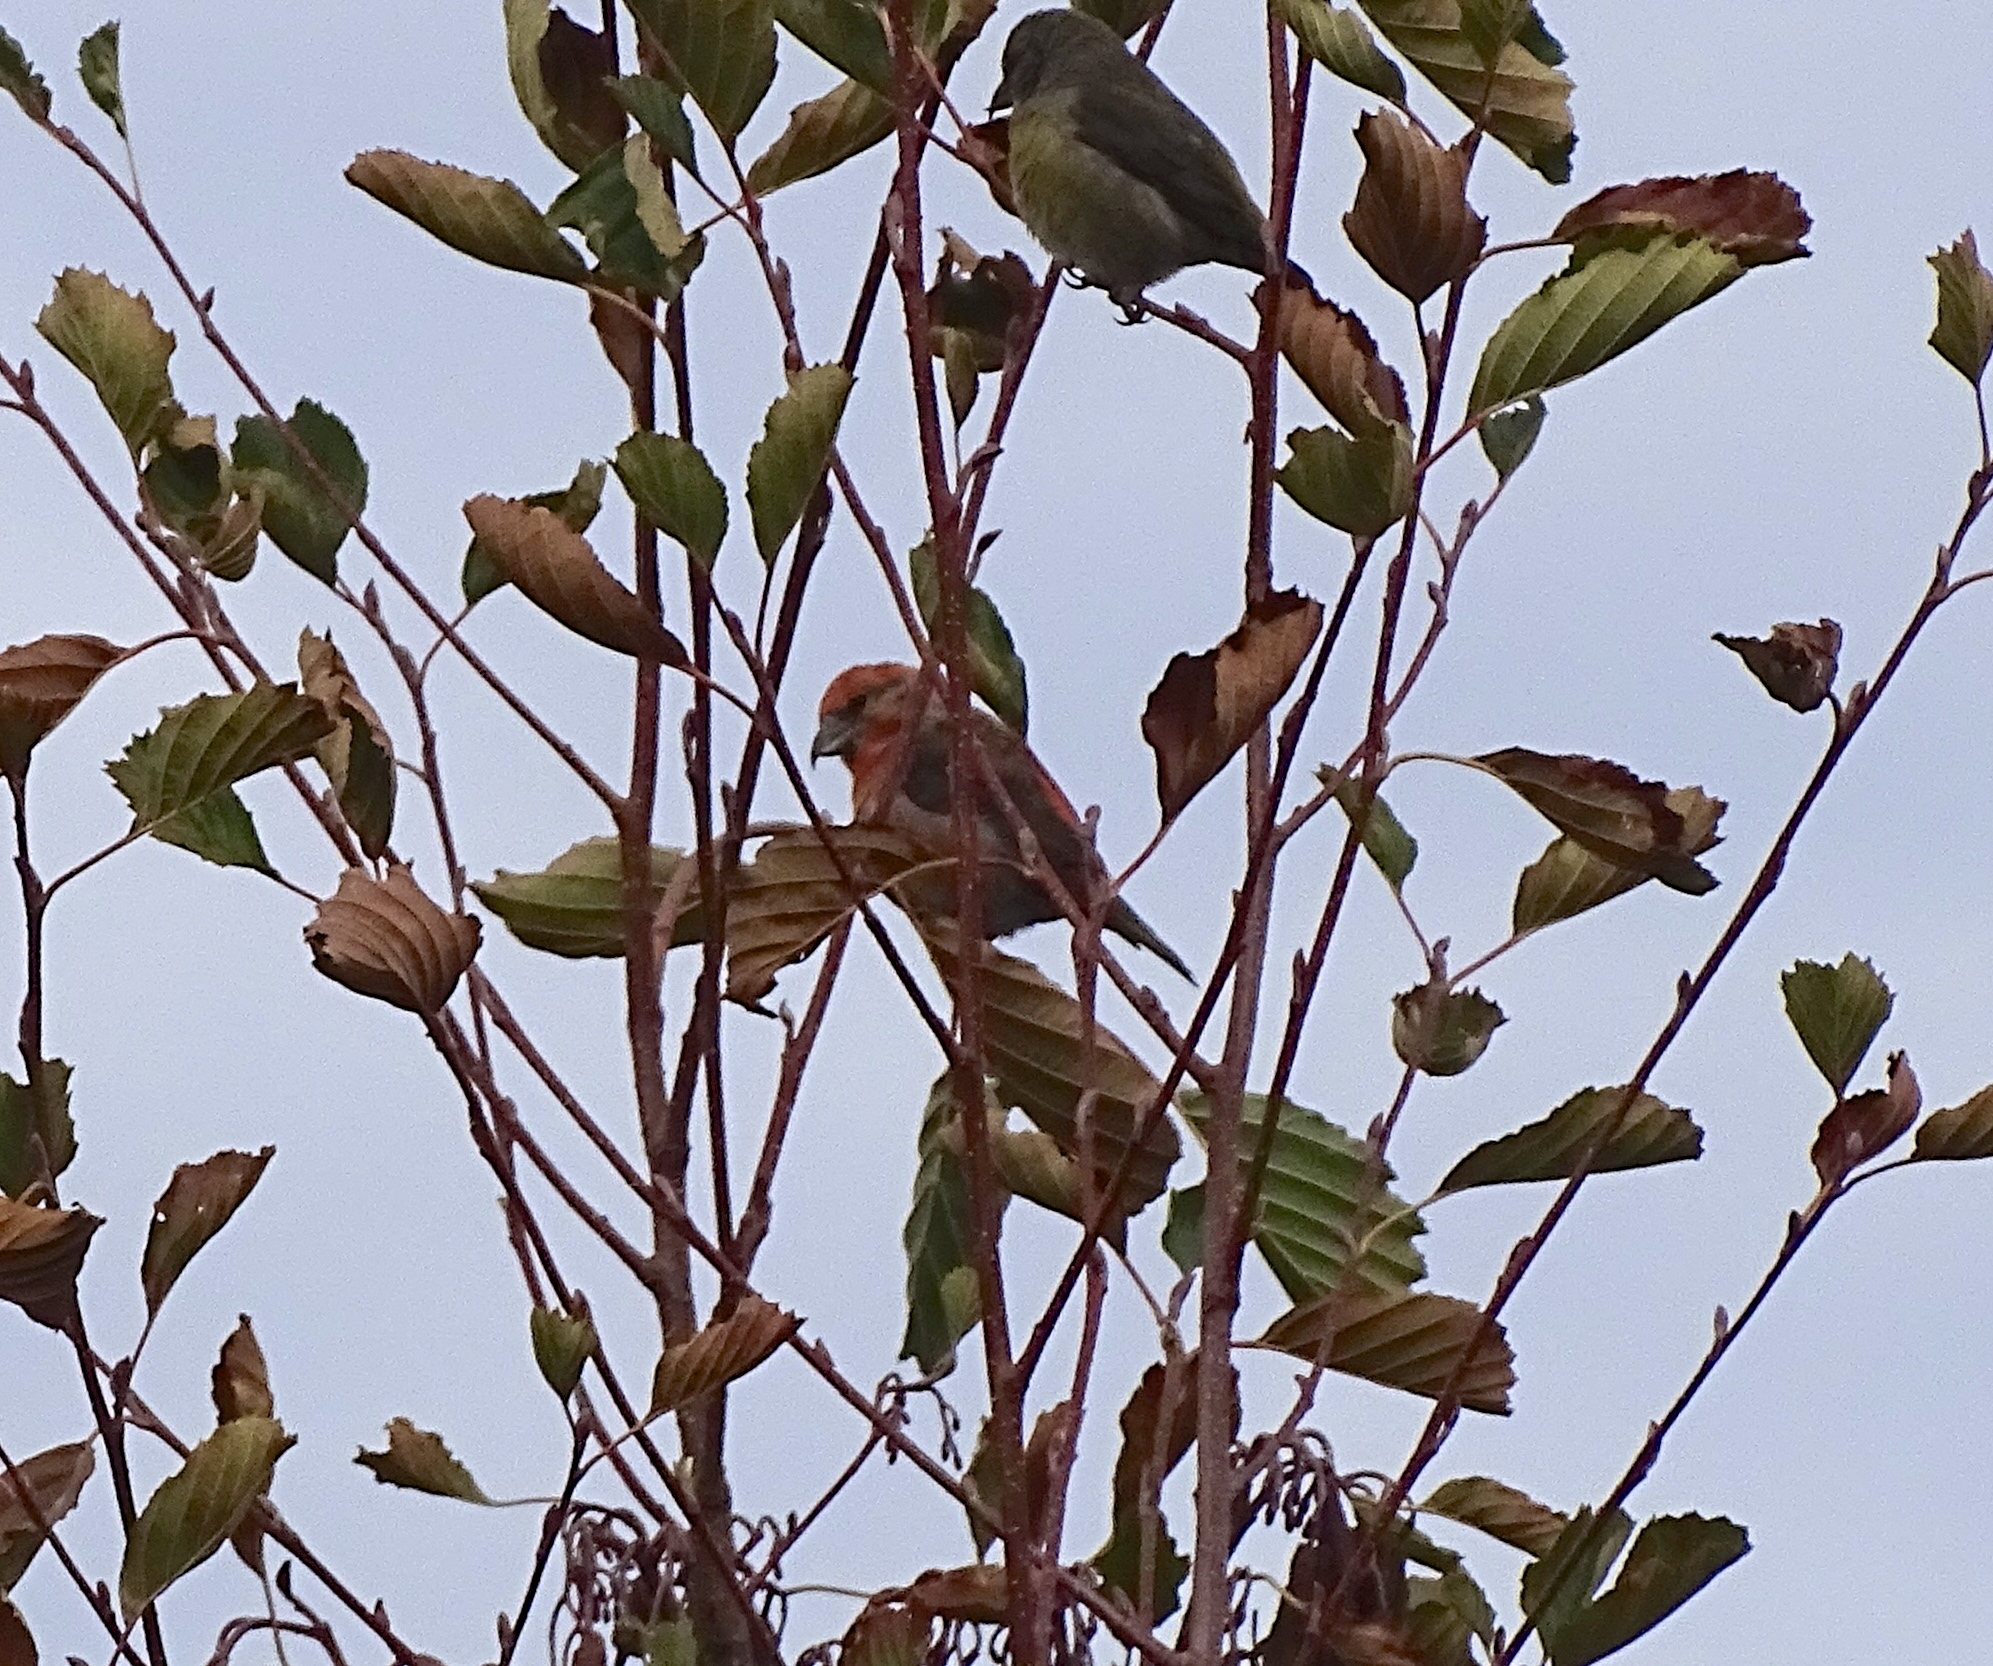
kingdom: Animalia
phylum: Chordata
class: Aves
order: Passeriformes
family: Fringillidae
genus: Loxia
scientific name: Loxia curvirostra
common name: Red crossbill
